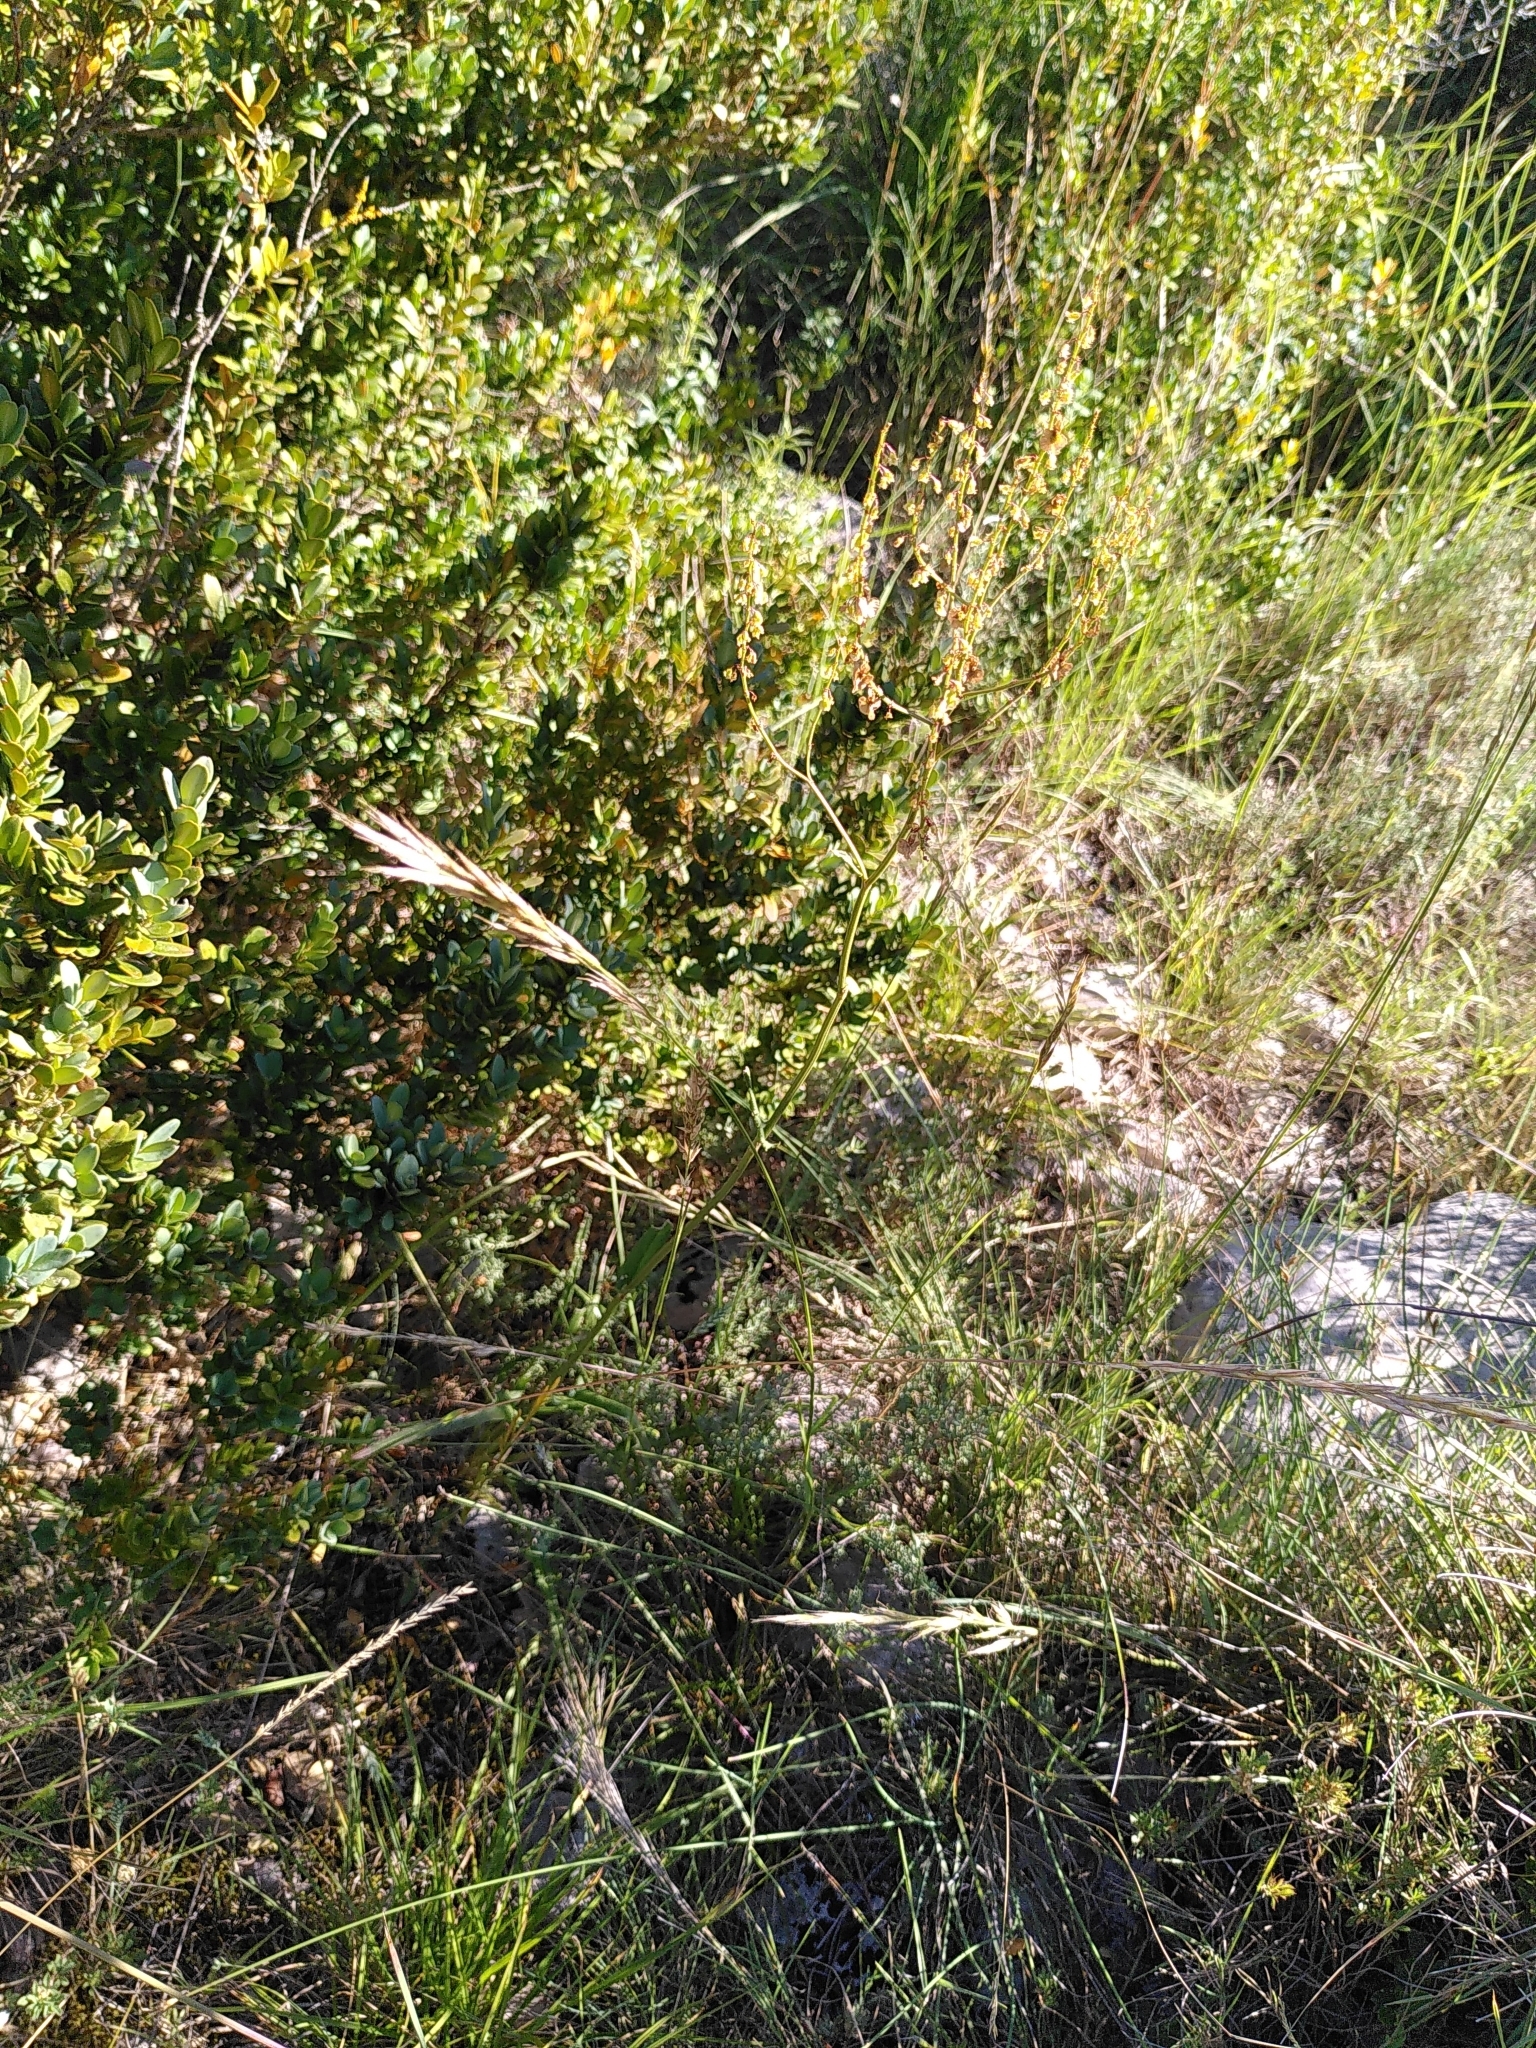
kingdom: Plantae
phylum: Tracheophyta
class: Magnoliopsida
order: Caryophyllales
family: Polygonaceae
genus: Rumex
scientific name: Rumex intermedius
